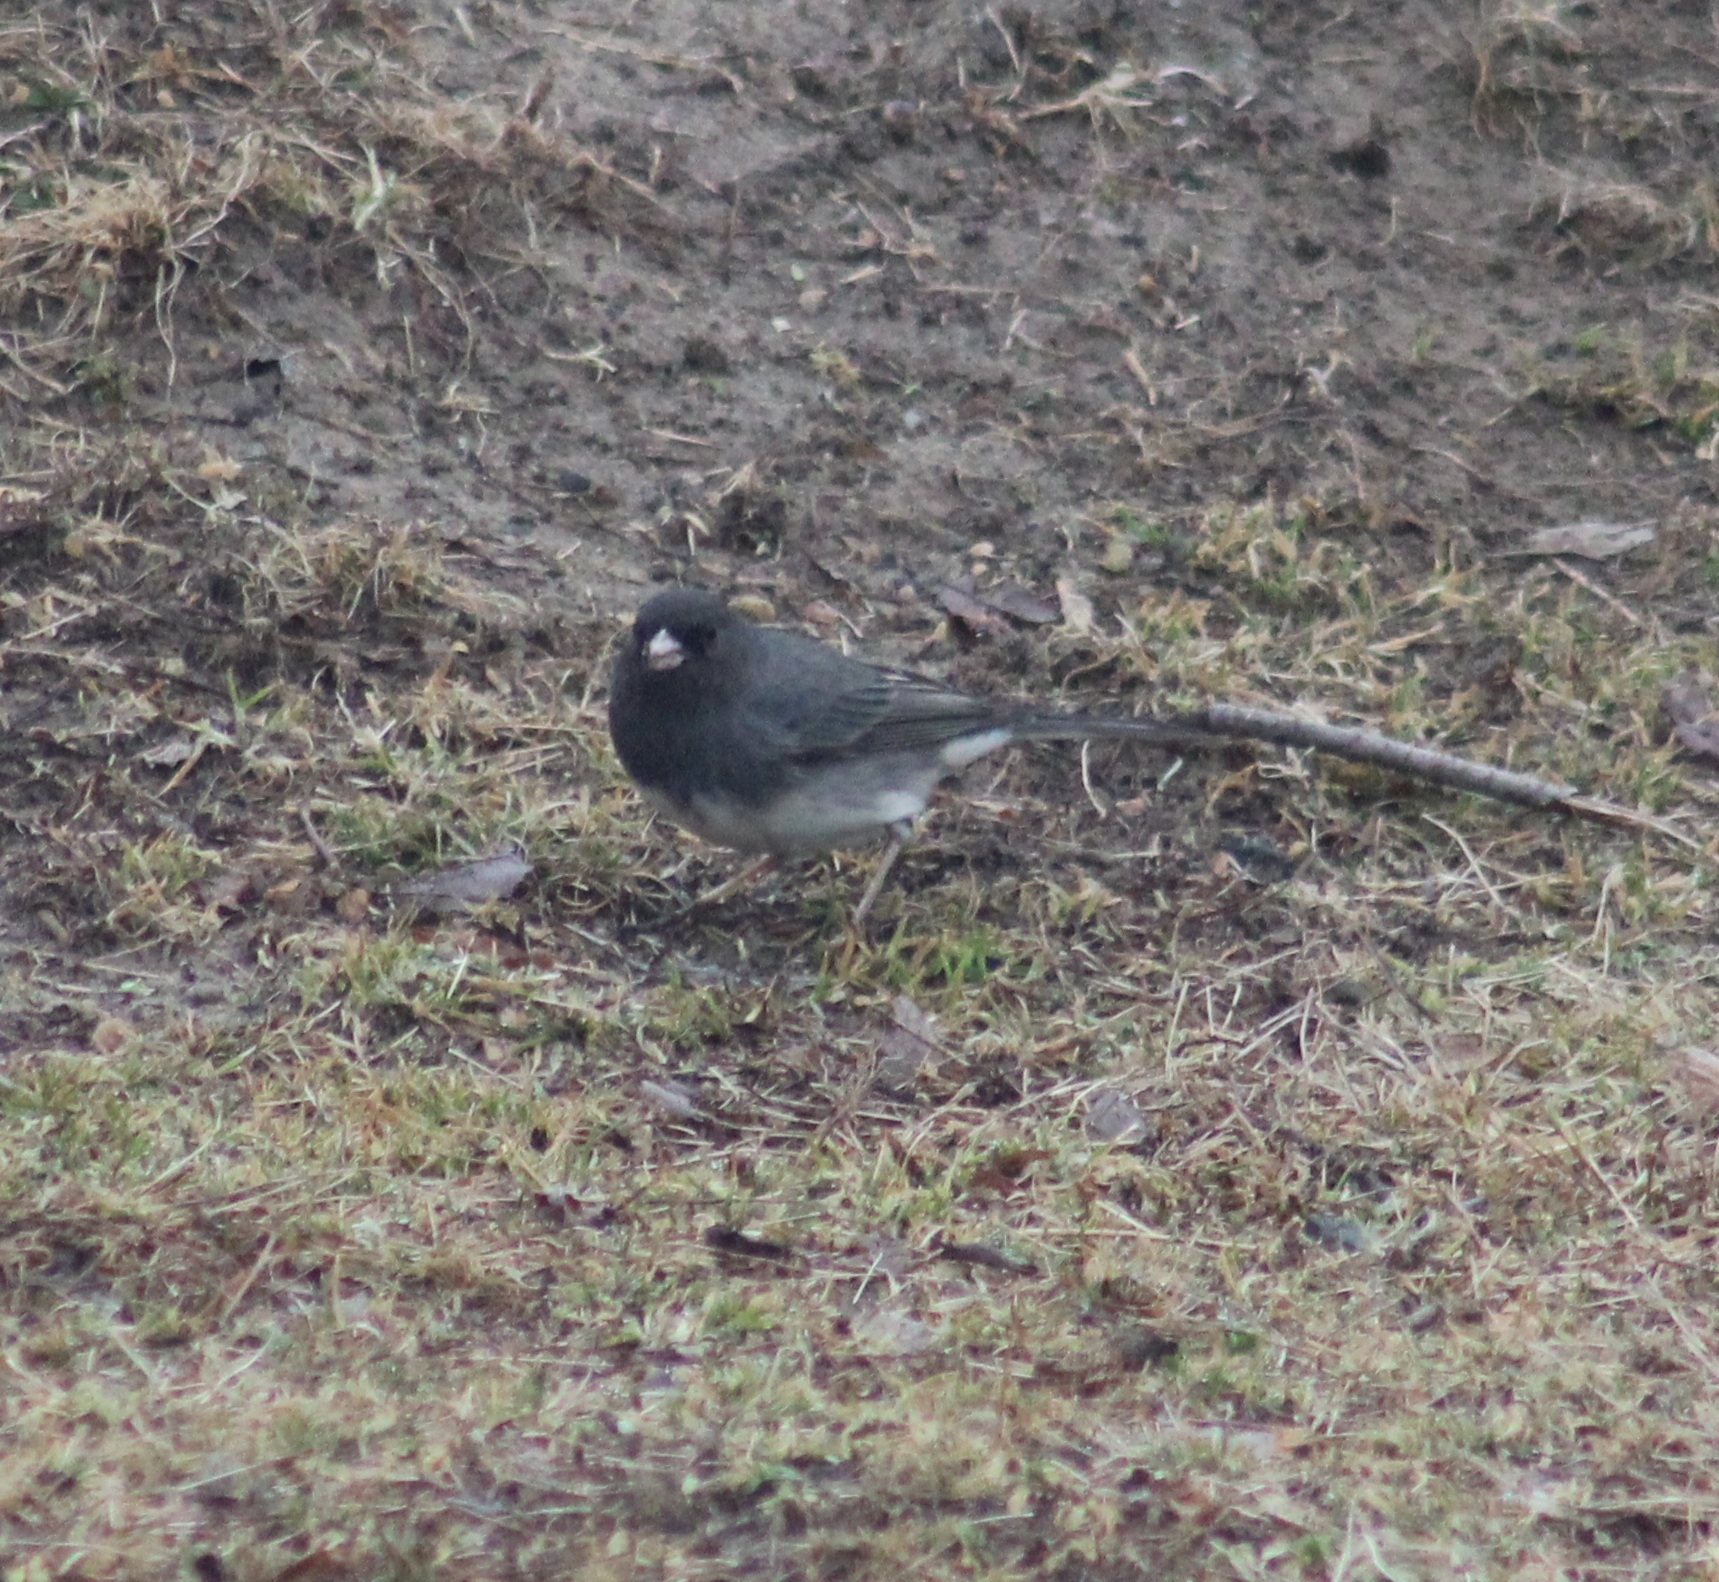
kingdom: Animalia
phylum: Chordata
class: Aves
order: Passeriformes
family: Passerellidae
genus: Junco
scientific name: Junco hyemalis
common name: Dark-eyed junco
